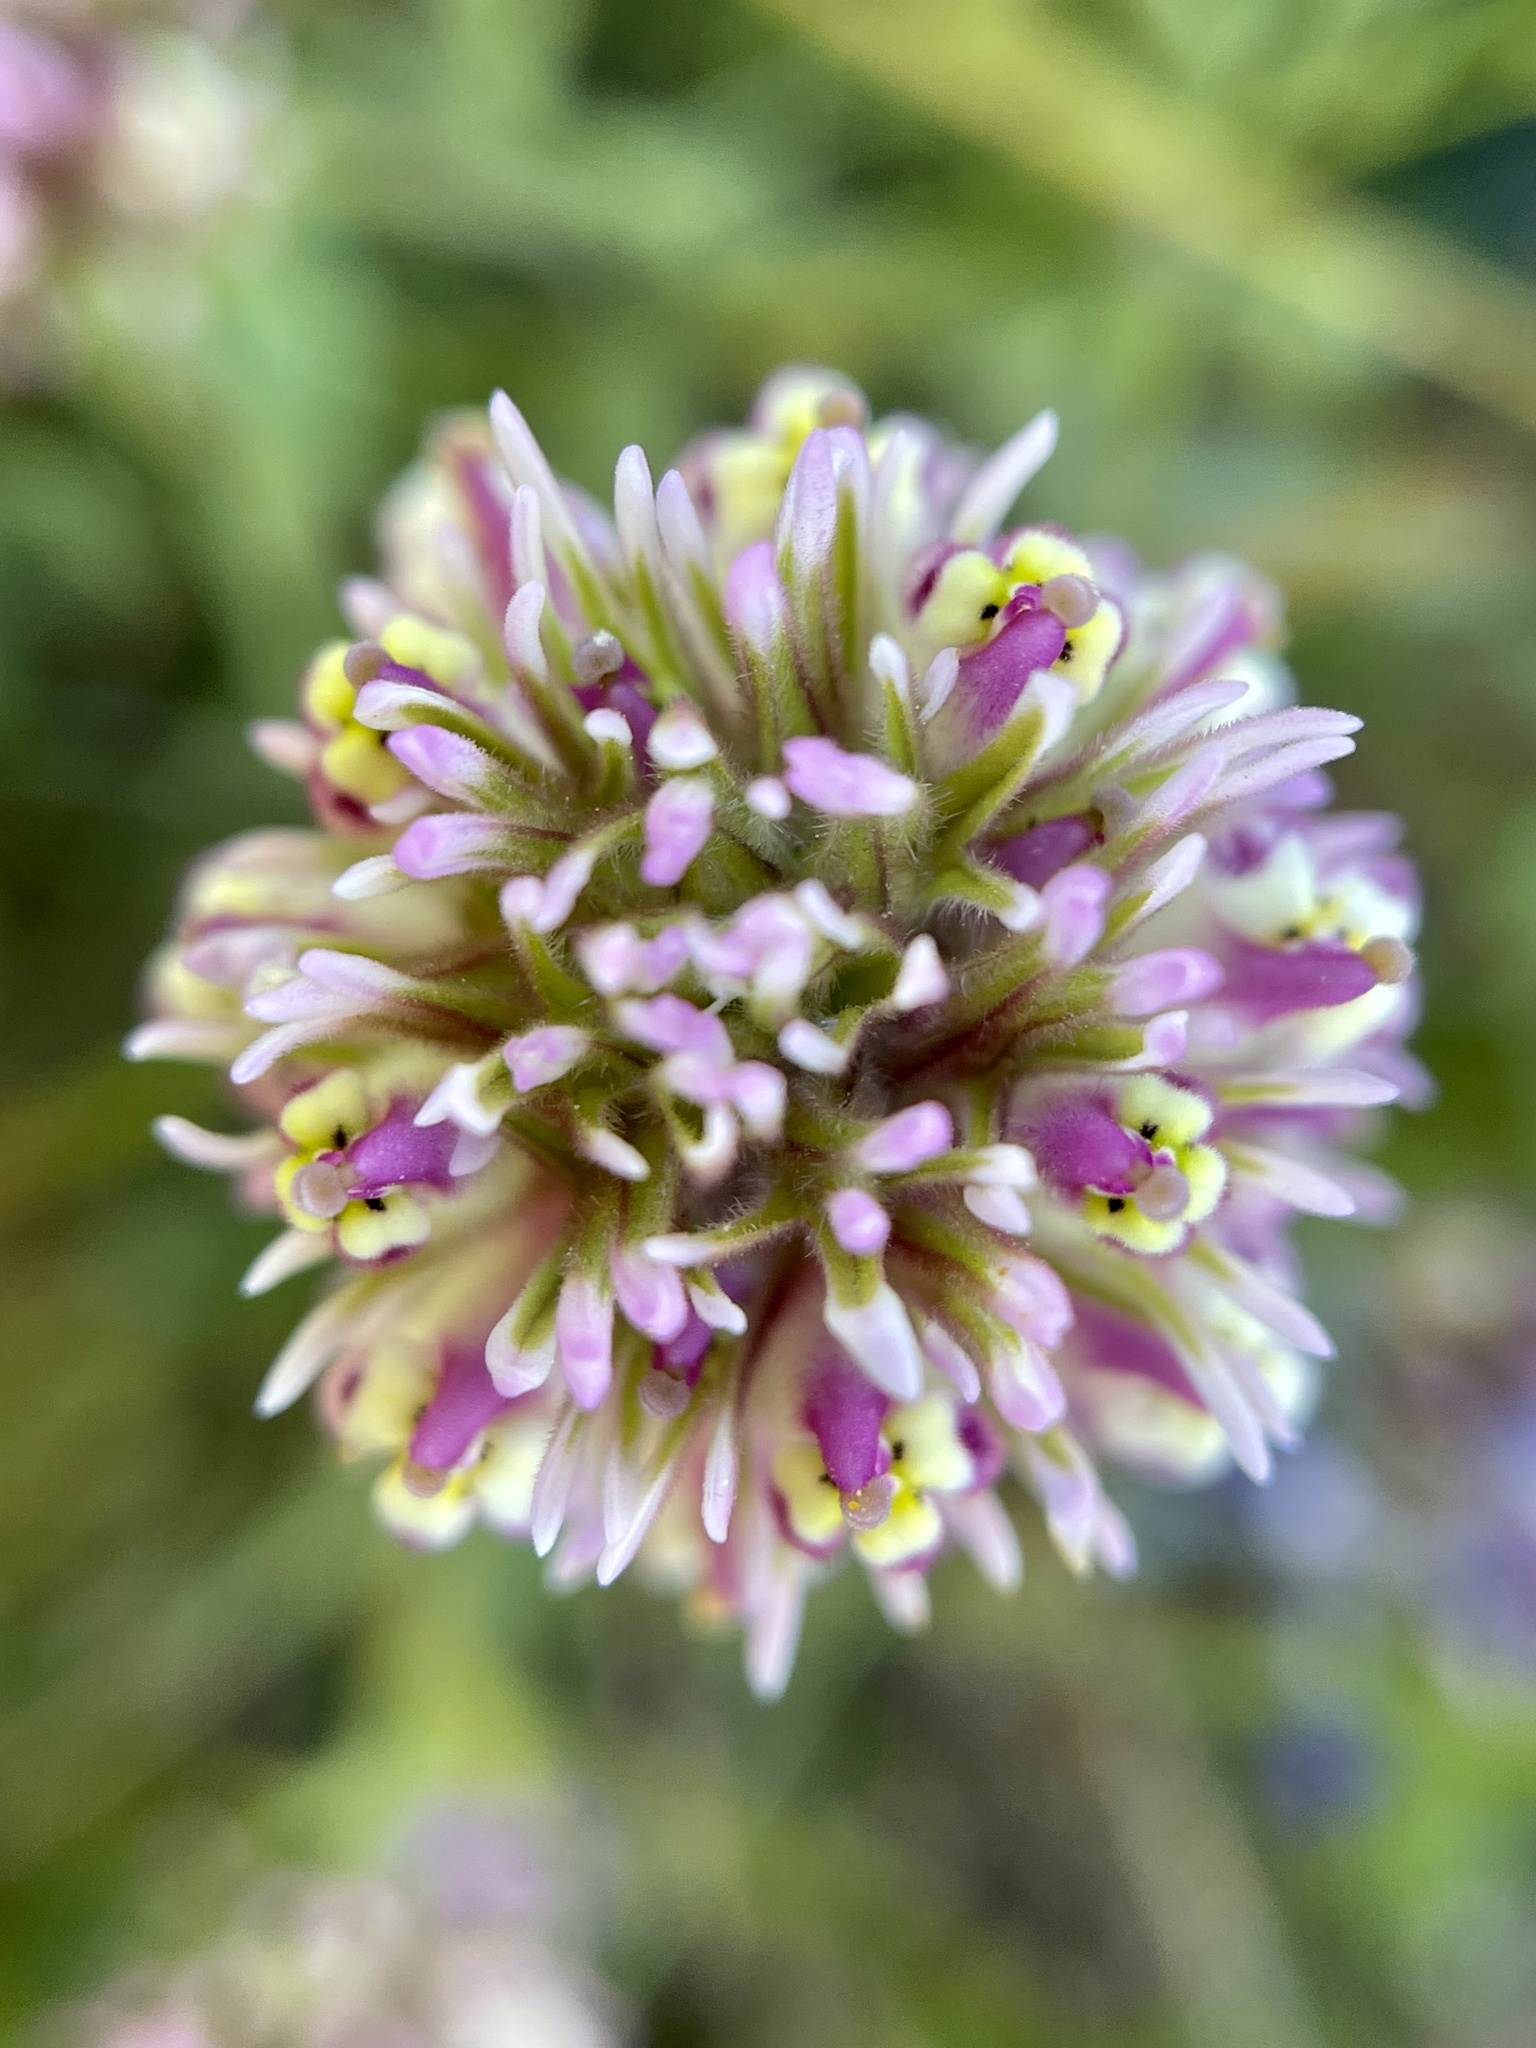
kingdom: Plantae
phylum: Tracheophyta
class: Magnoliopsida
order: Lamiales
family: Orobanchaceae
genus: Castilleja
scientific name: Castilleja densiflora
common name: Dense-flower indian paintbrush
